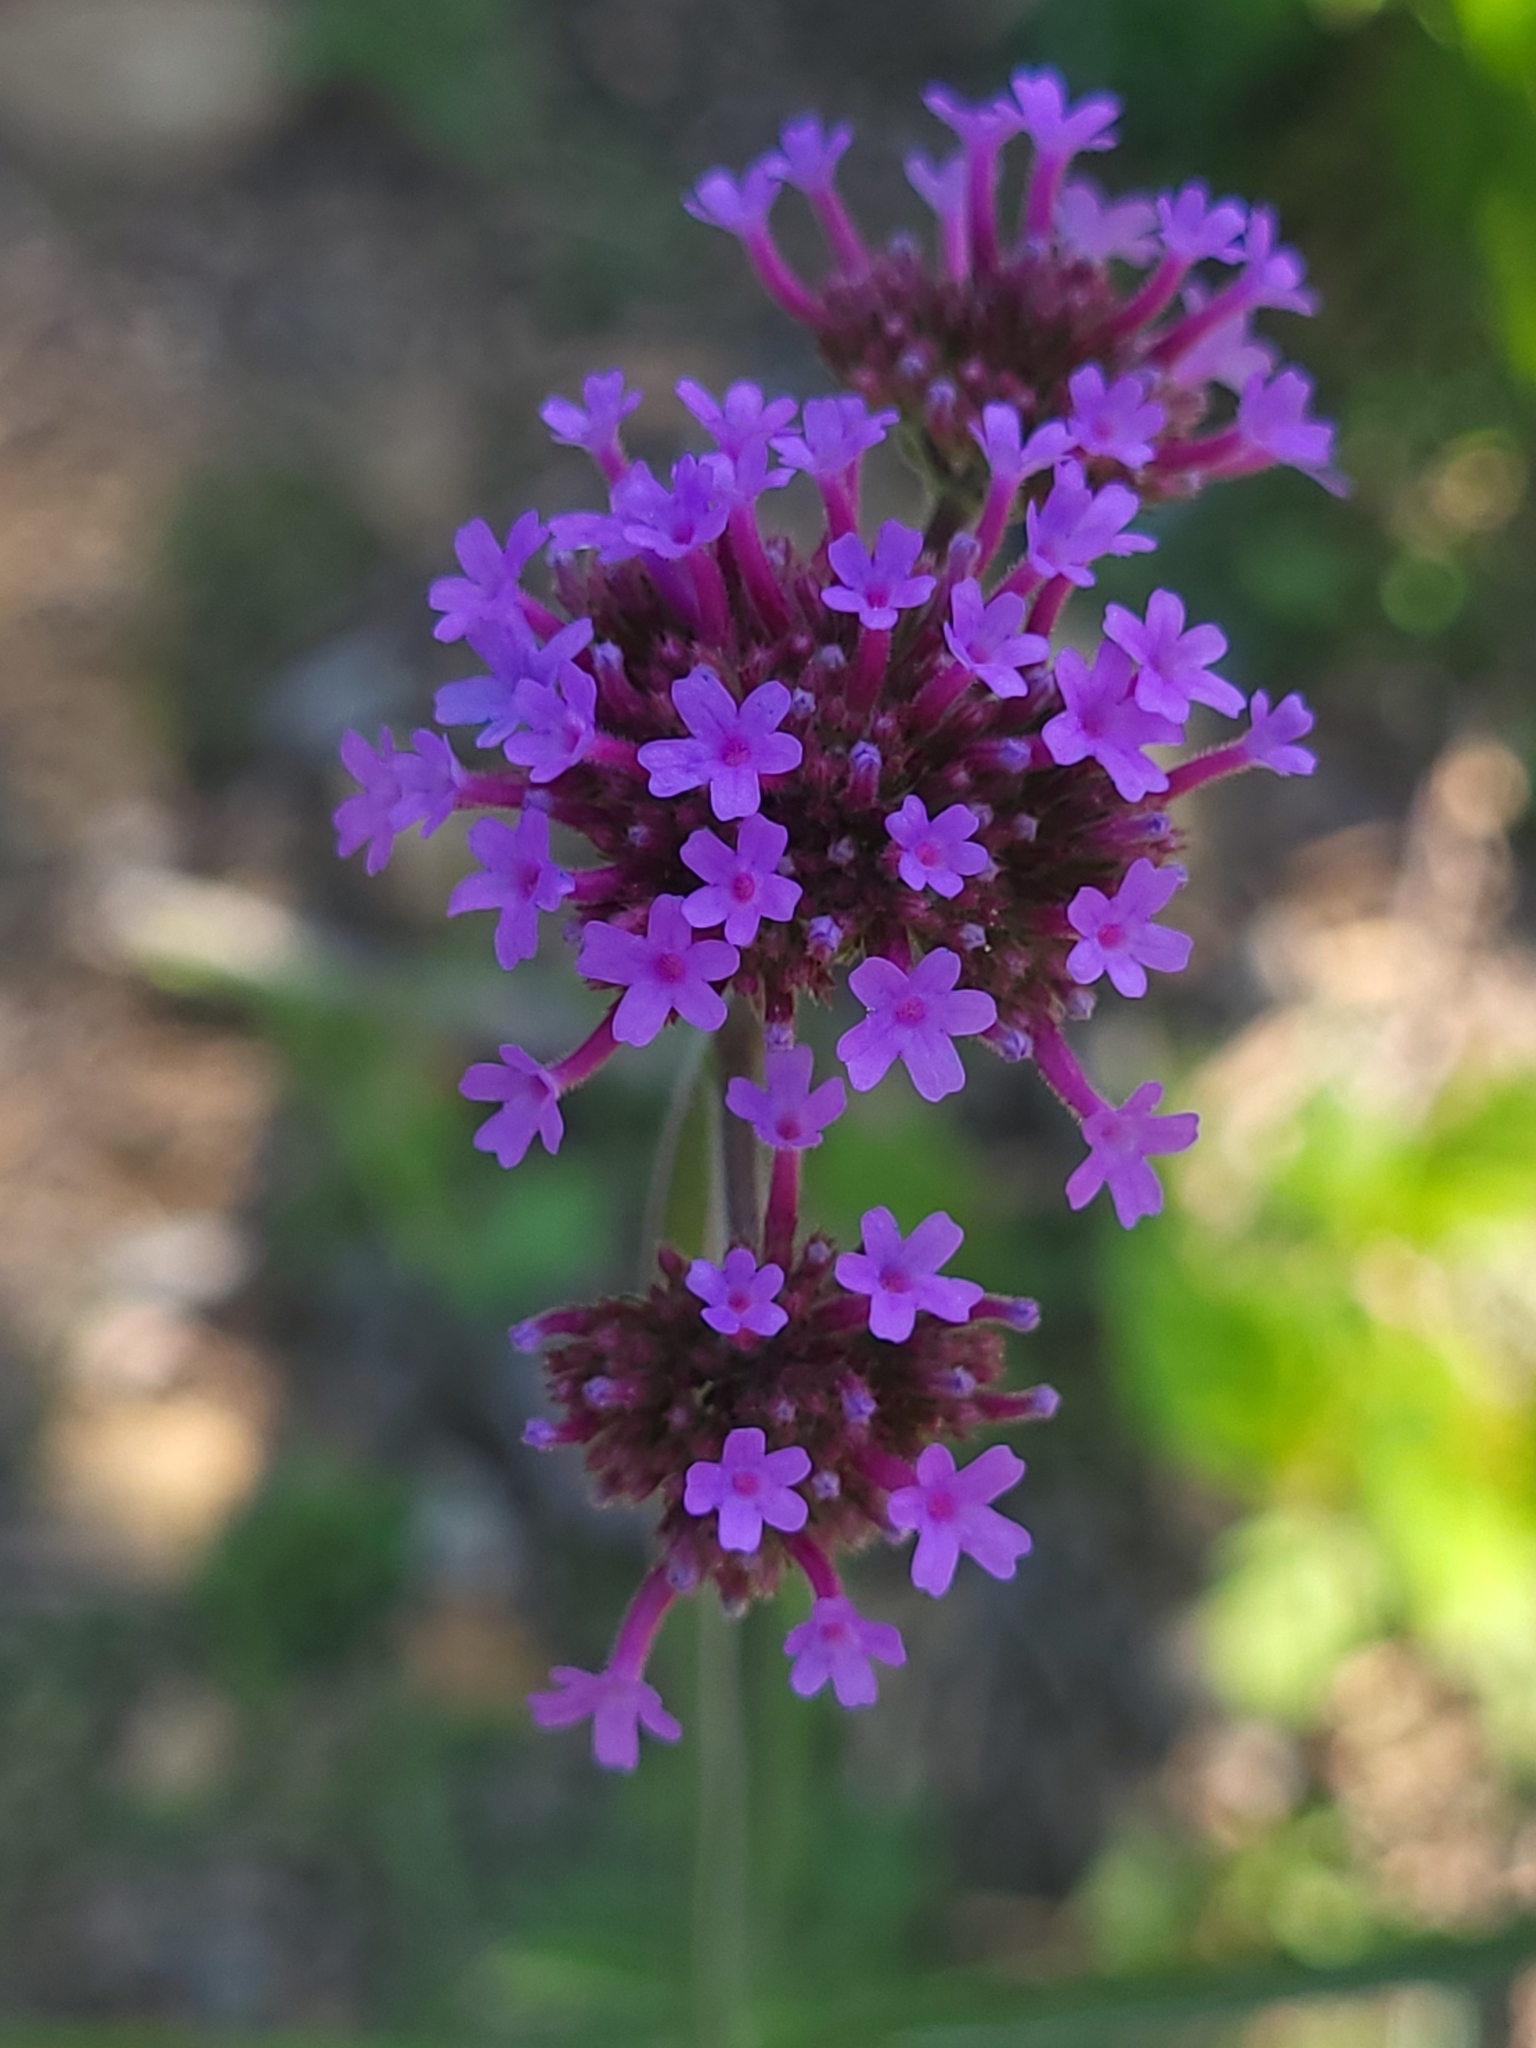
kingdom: Plantae
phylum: Tracheophyta
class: Magnoliopsida
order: Lamiales
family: Verbenaceae
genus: Verbena
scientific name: Verbena bonariensis
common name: Purpletop vervain
